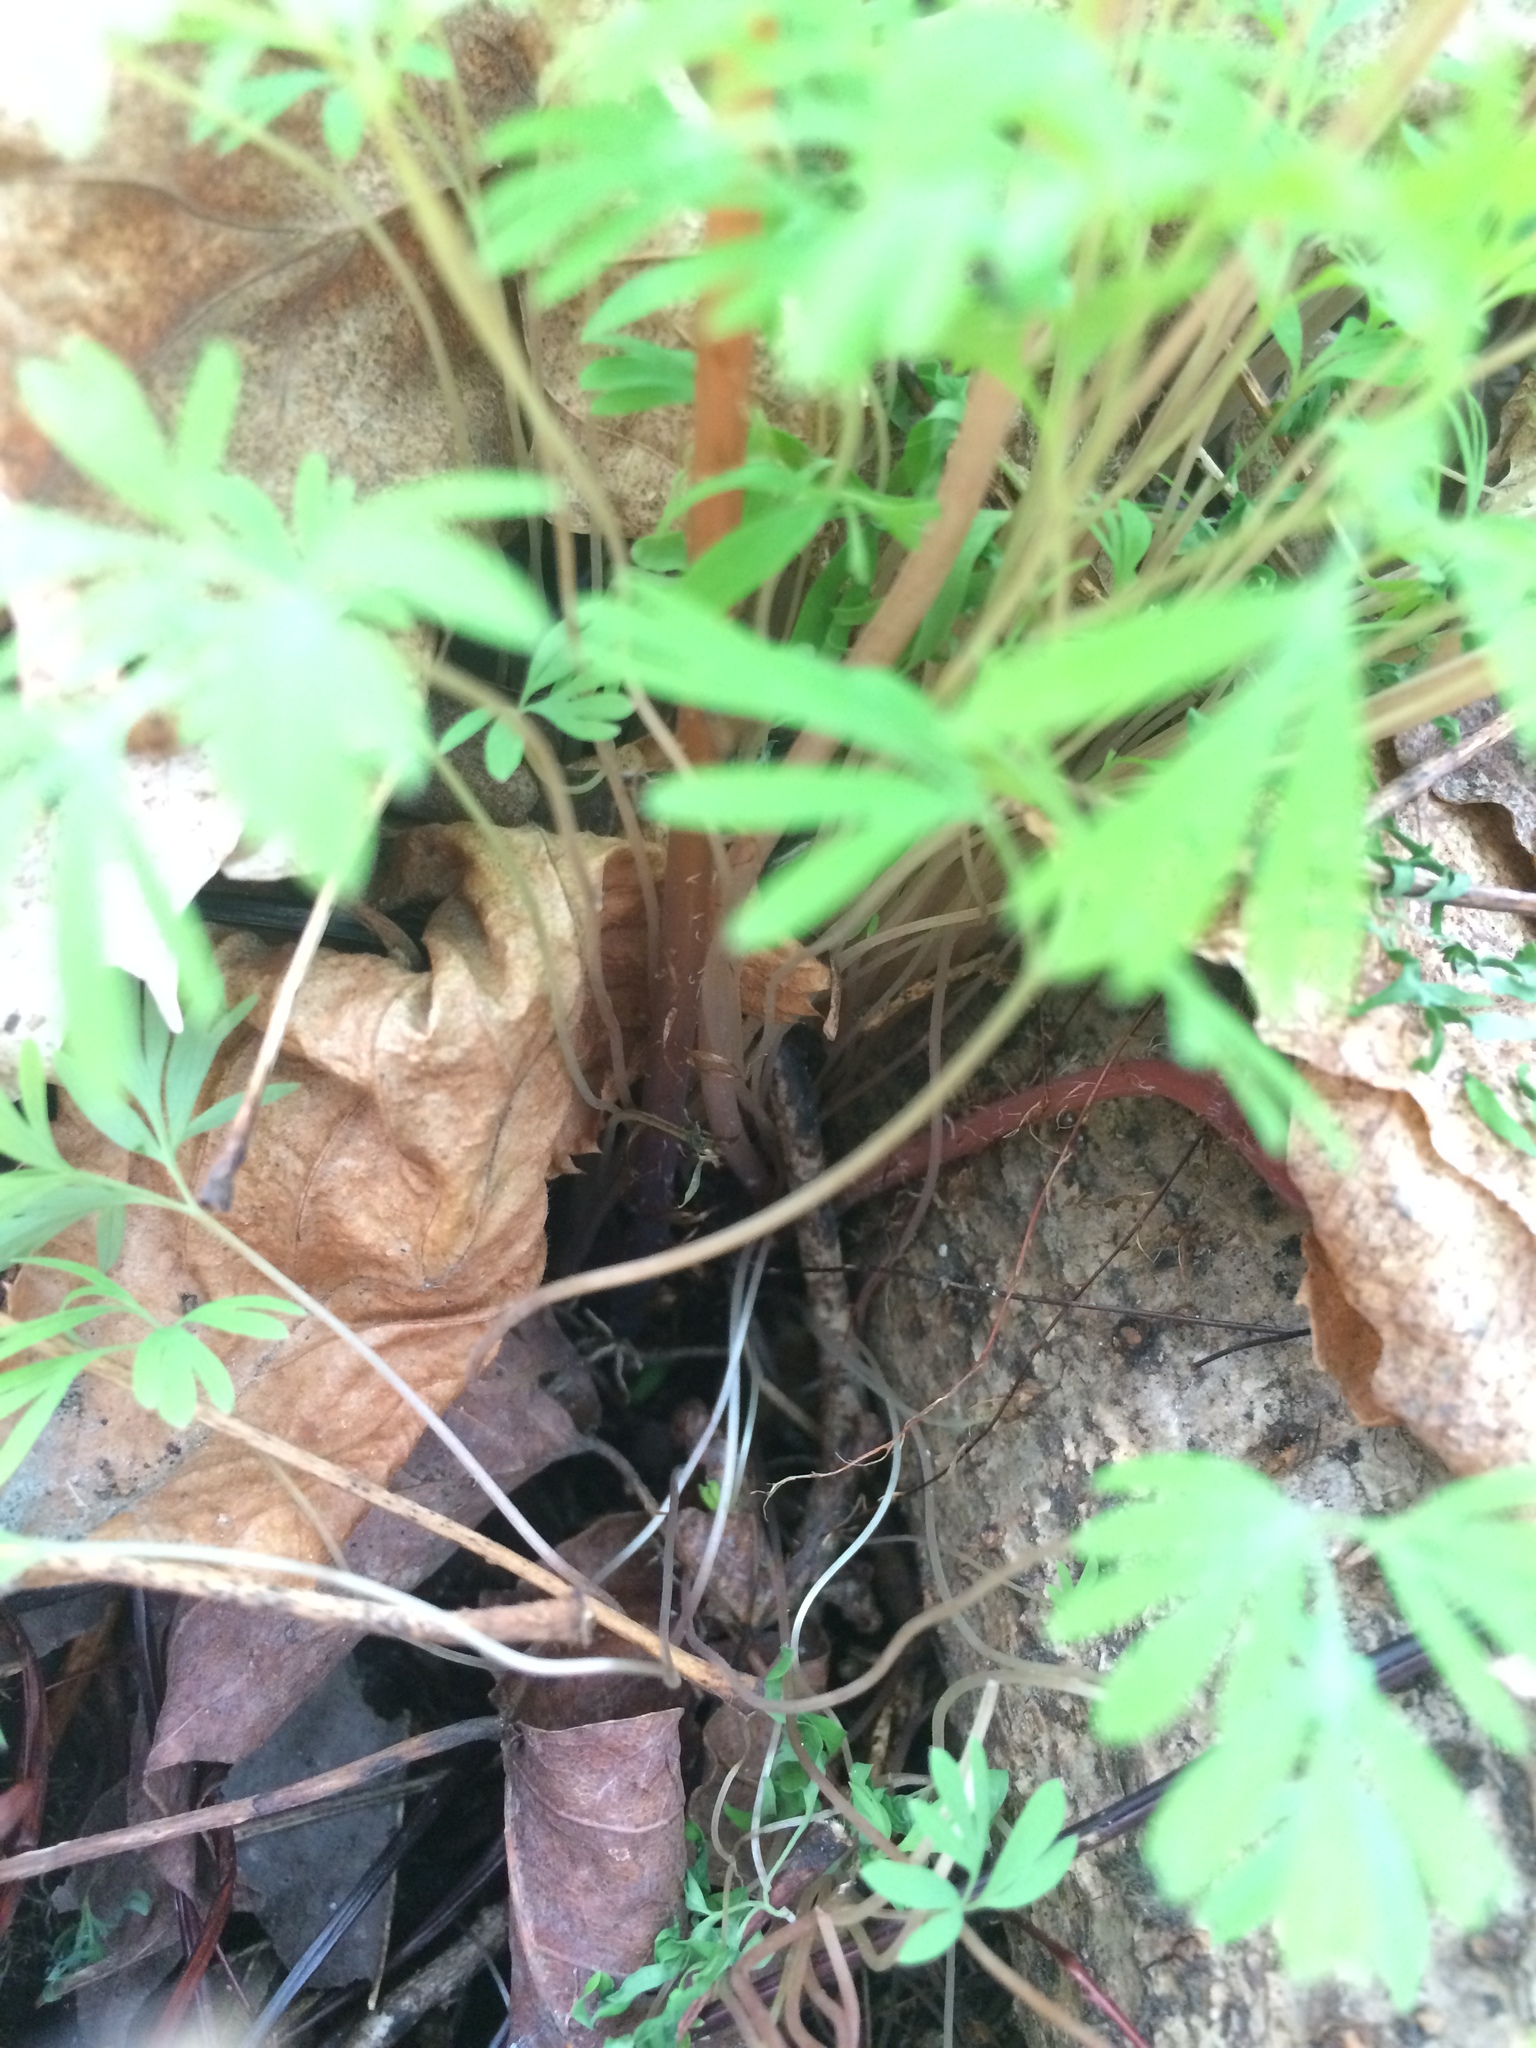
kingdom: Plantae
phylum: Tracheophyta
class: Magnoliopsida
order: Ranunculales
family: Papaveraceae
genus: Dicentra
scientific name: Dicentra
